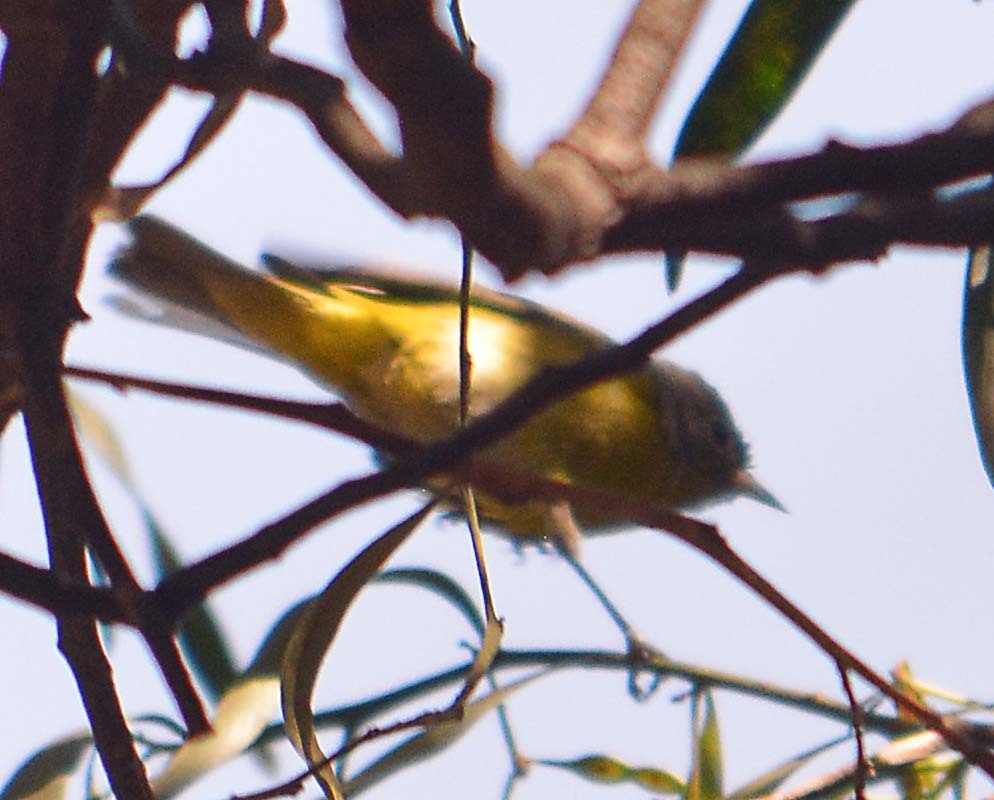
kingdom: Animalia
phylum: Chordata
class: Aves
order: Passeriformes
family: Parulidae
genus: Leiothlypis
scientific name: Leiothlypis ruficapilla
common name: Nashville warbler
